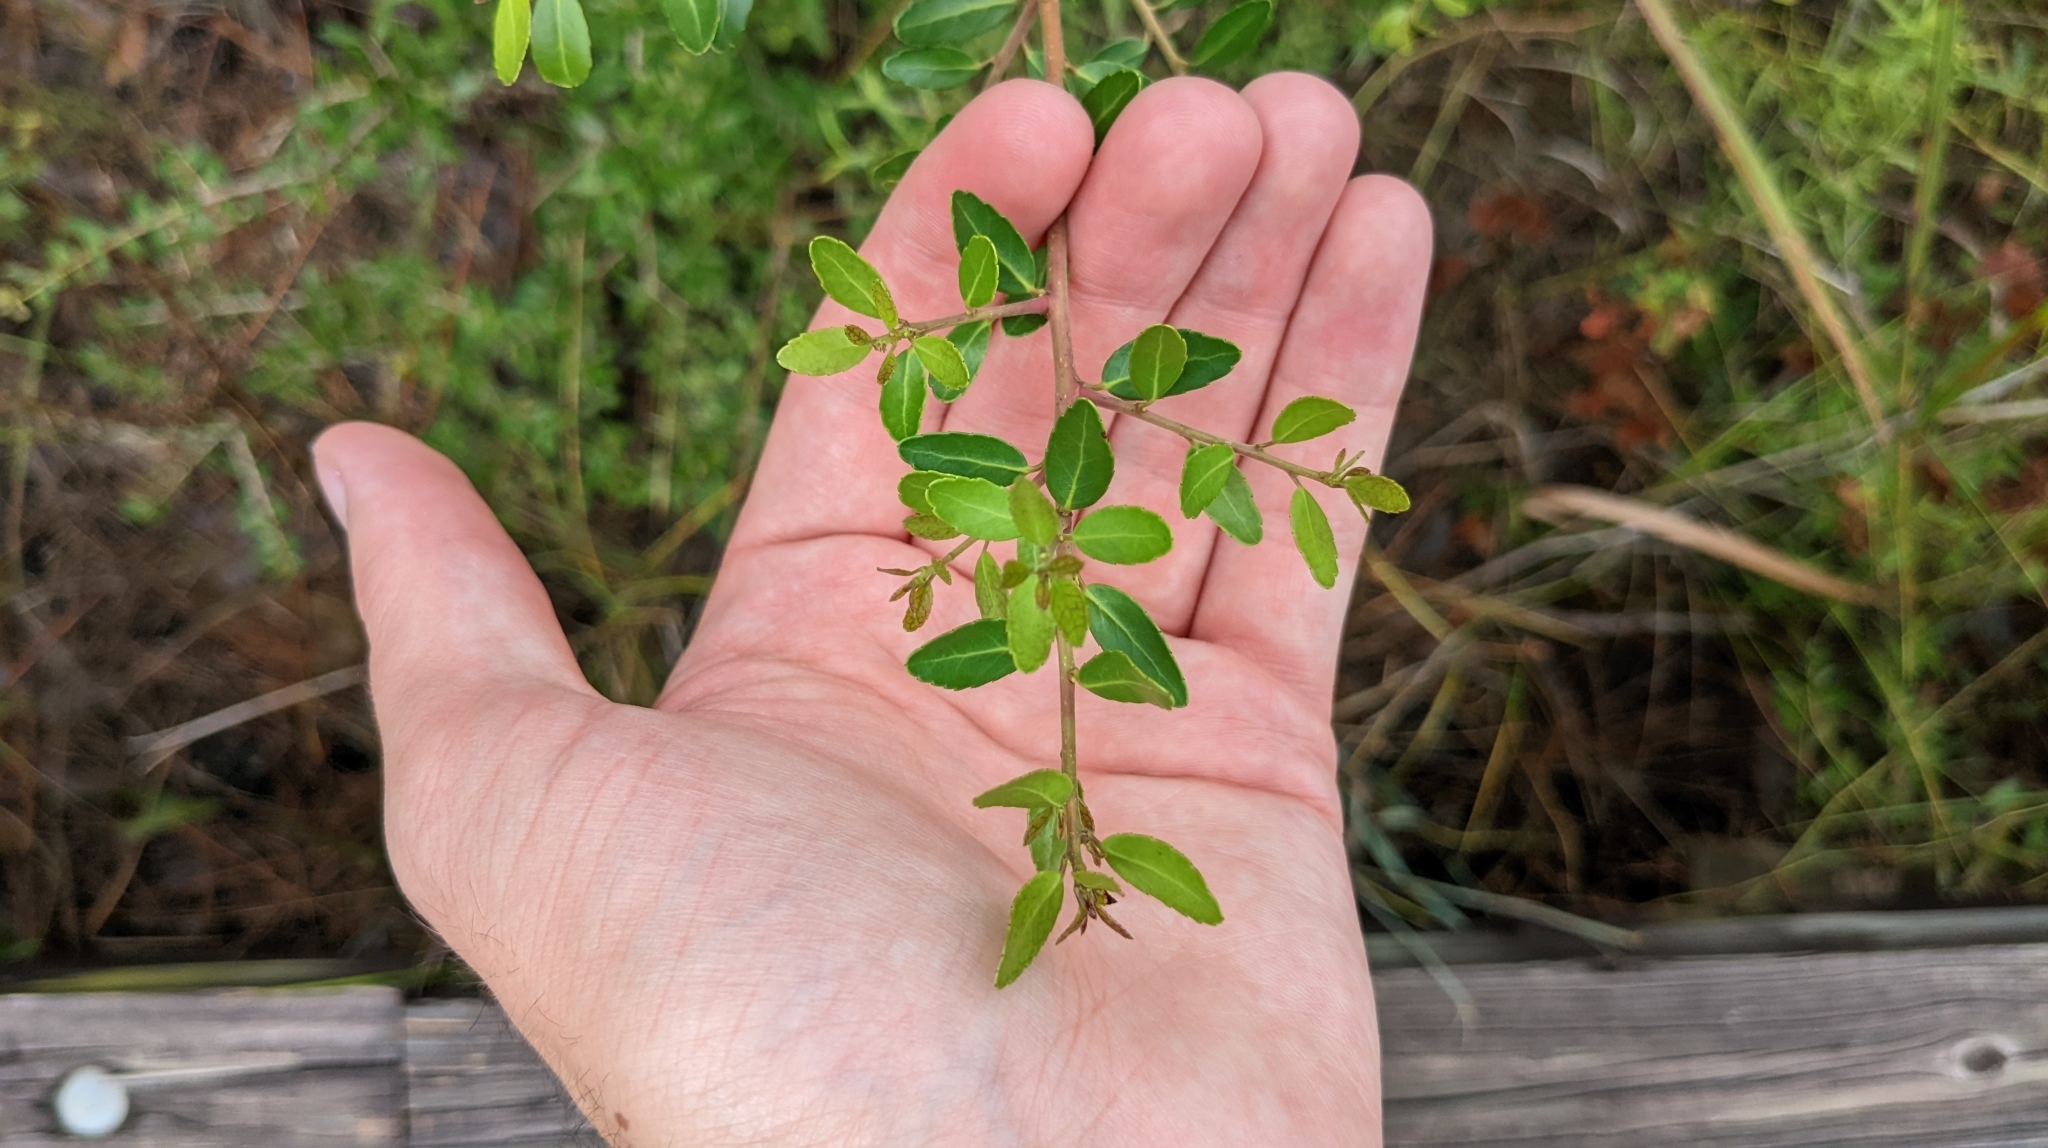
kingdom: Plantae
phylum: Tracheophyta
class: Magnoliopsida
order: Aquifoliales
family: Aquifoliaceae
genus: Ilex
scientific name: Ilex vomitoria
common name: Yaupon holly
